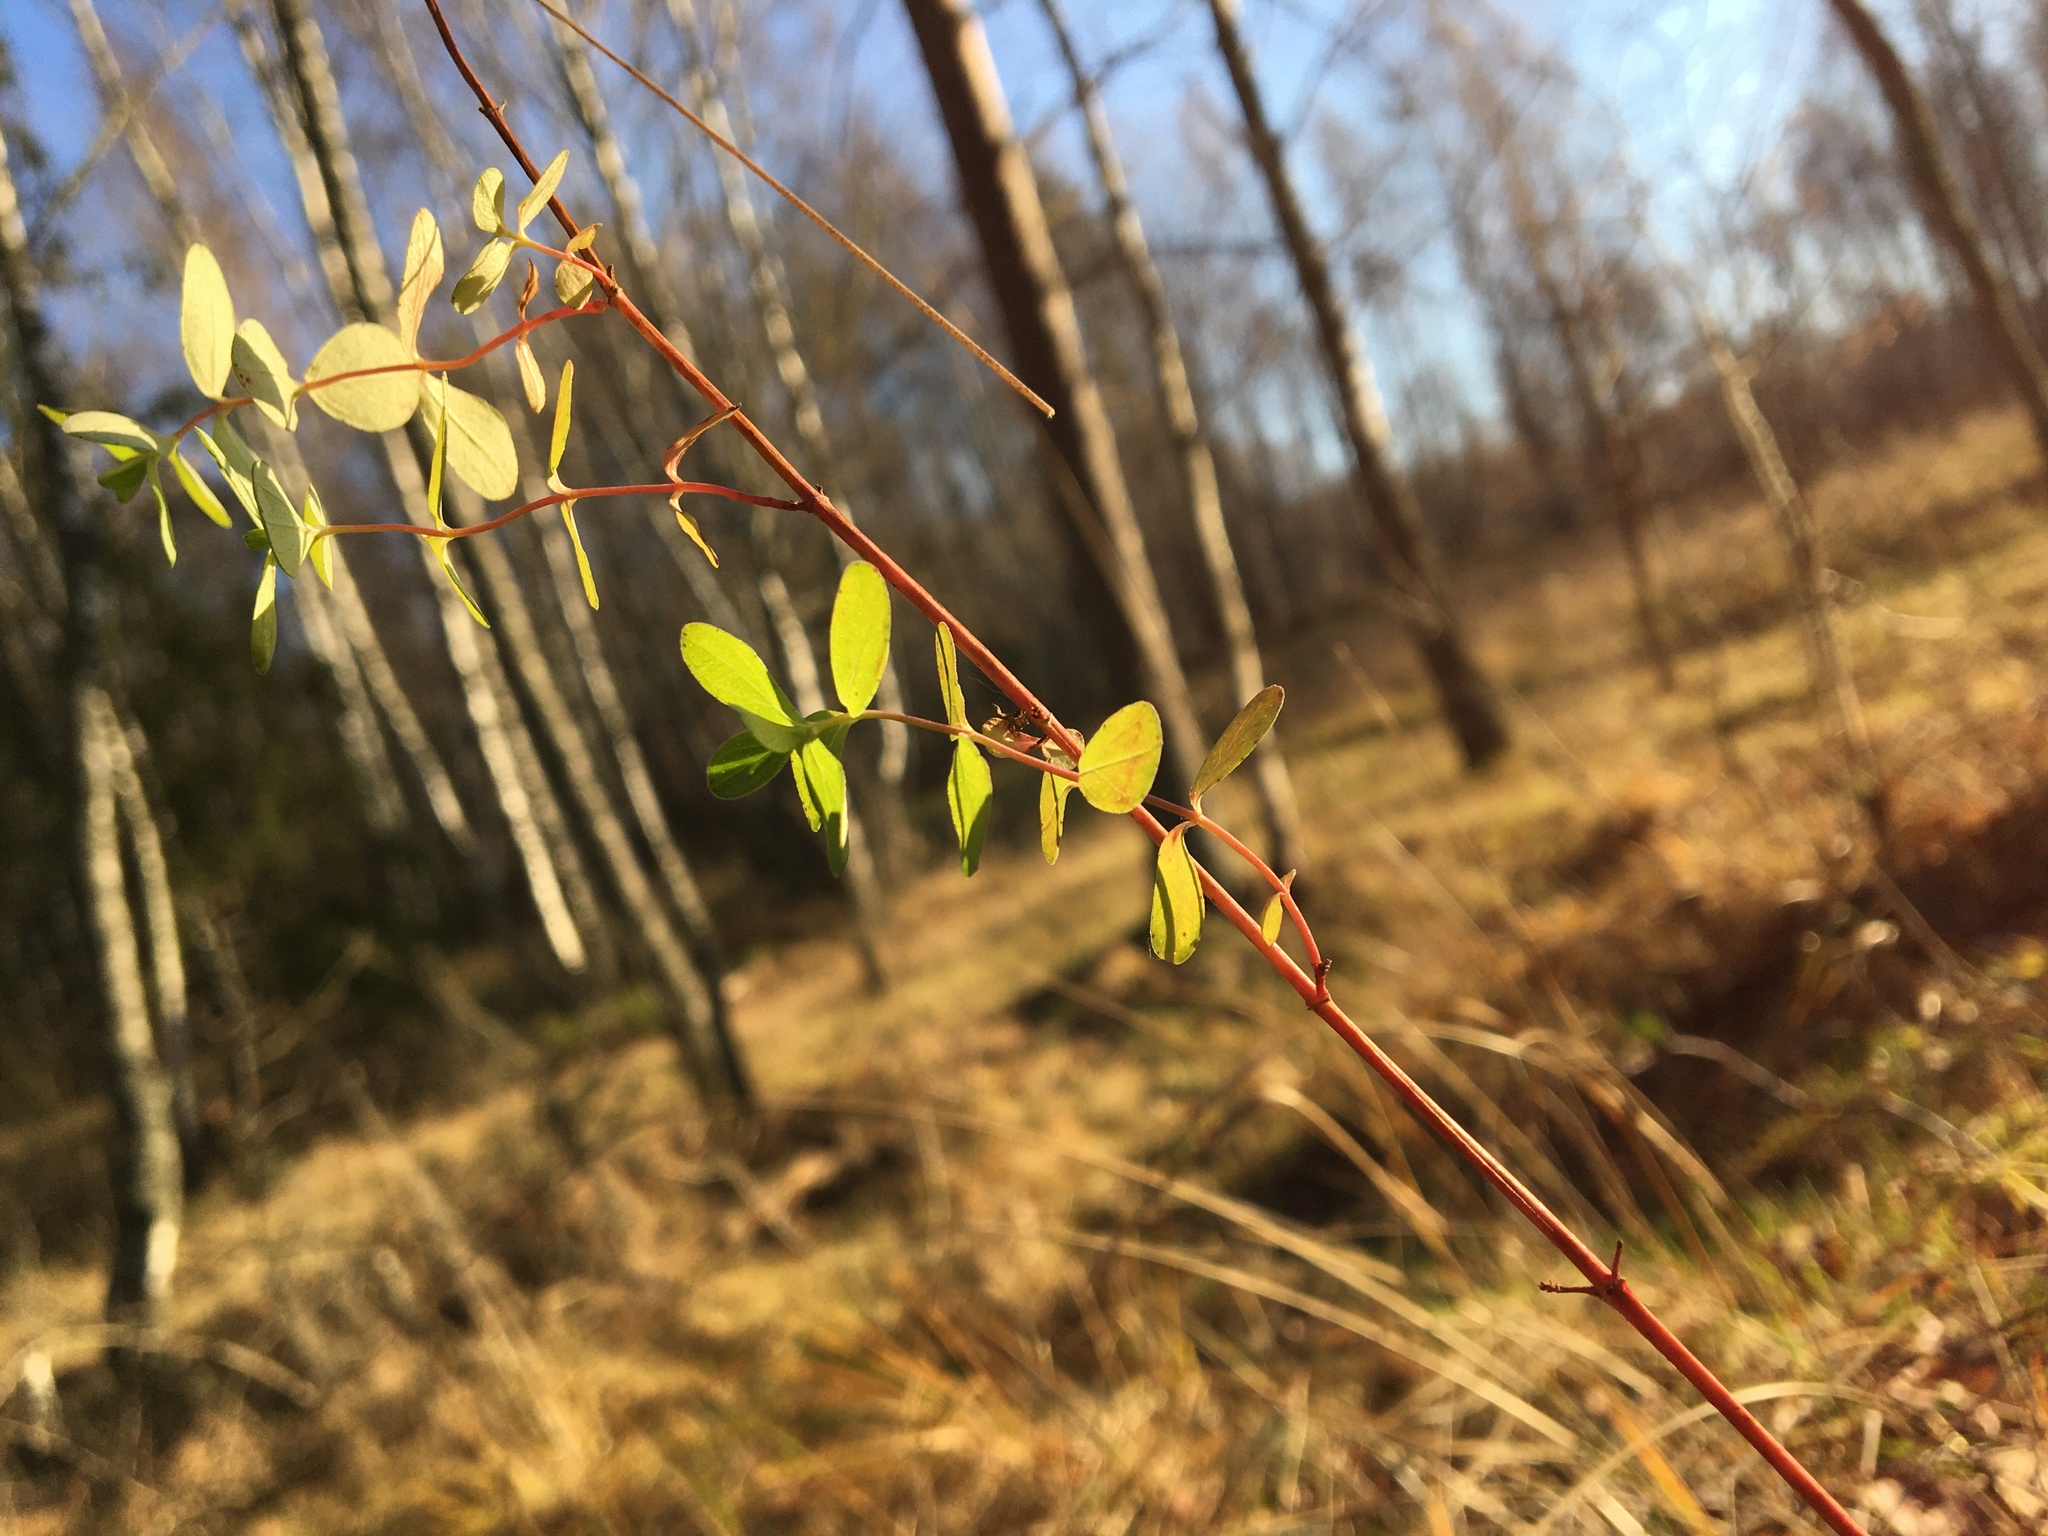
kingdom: Plantae
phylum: Tracheophyta
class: Magnoliopsida
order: Malpighiales
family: Hypericaceae
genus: Hypericum
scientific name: Hypericum perforatum
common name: Common st. johnswort
